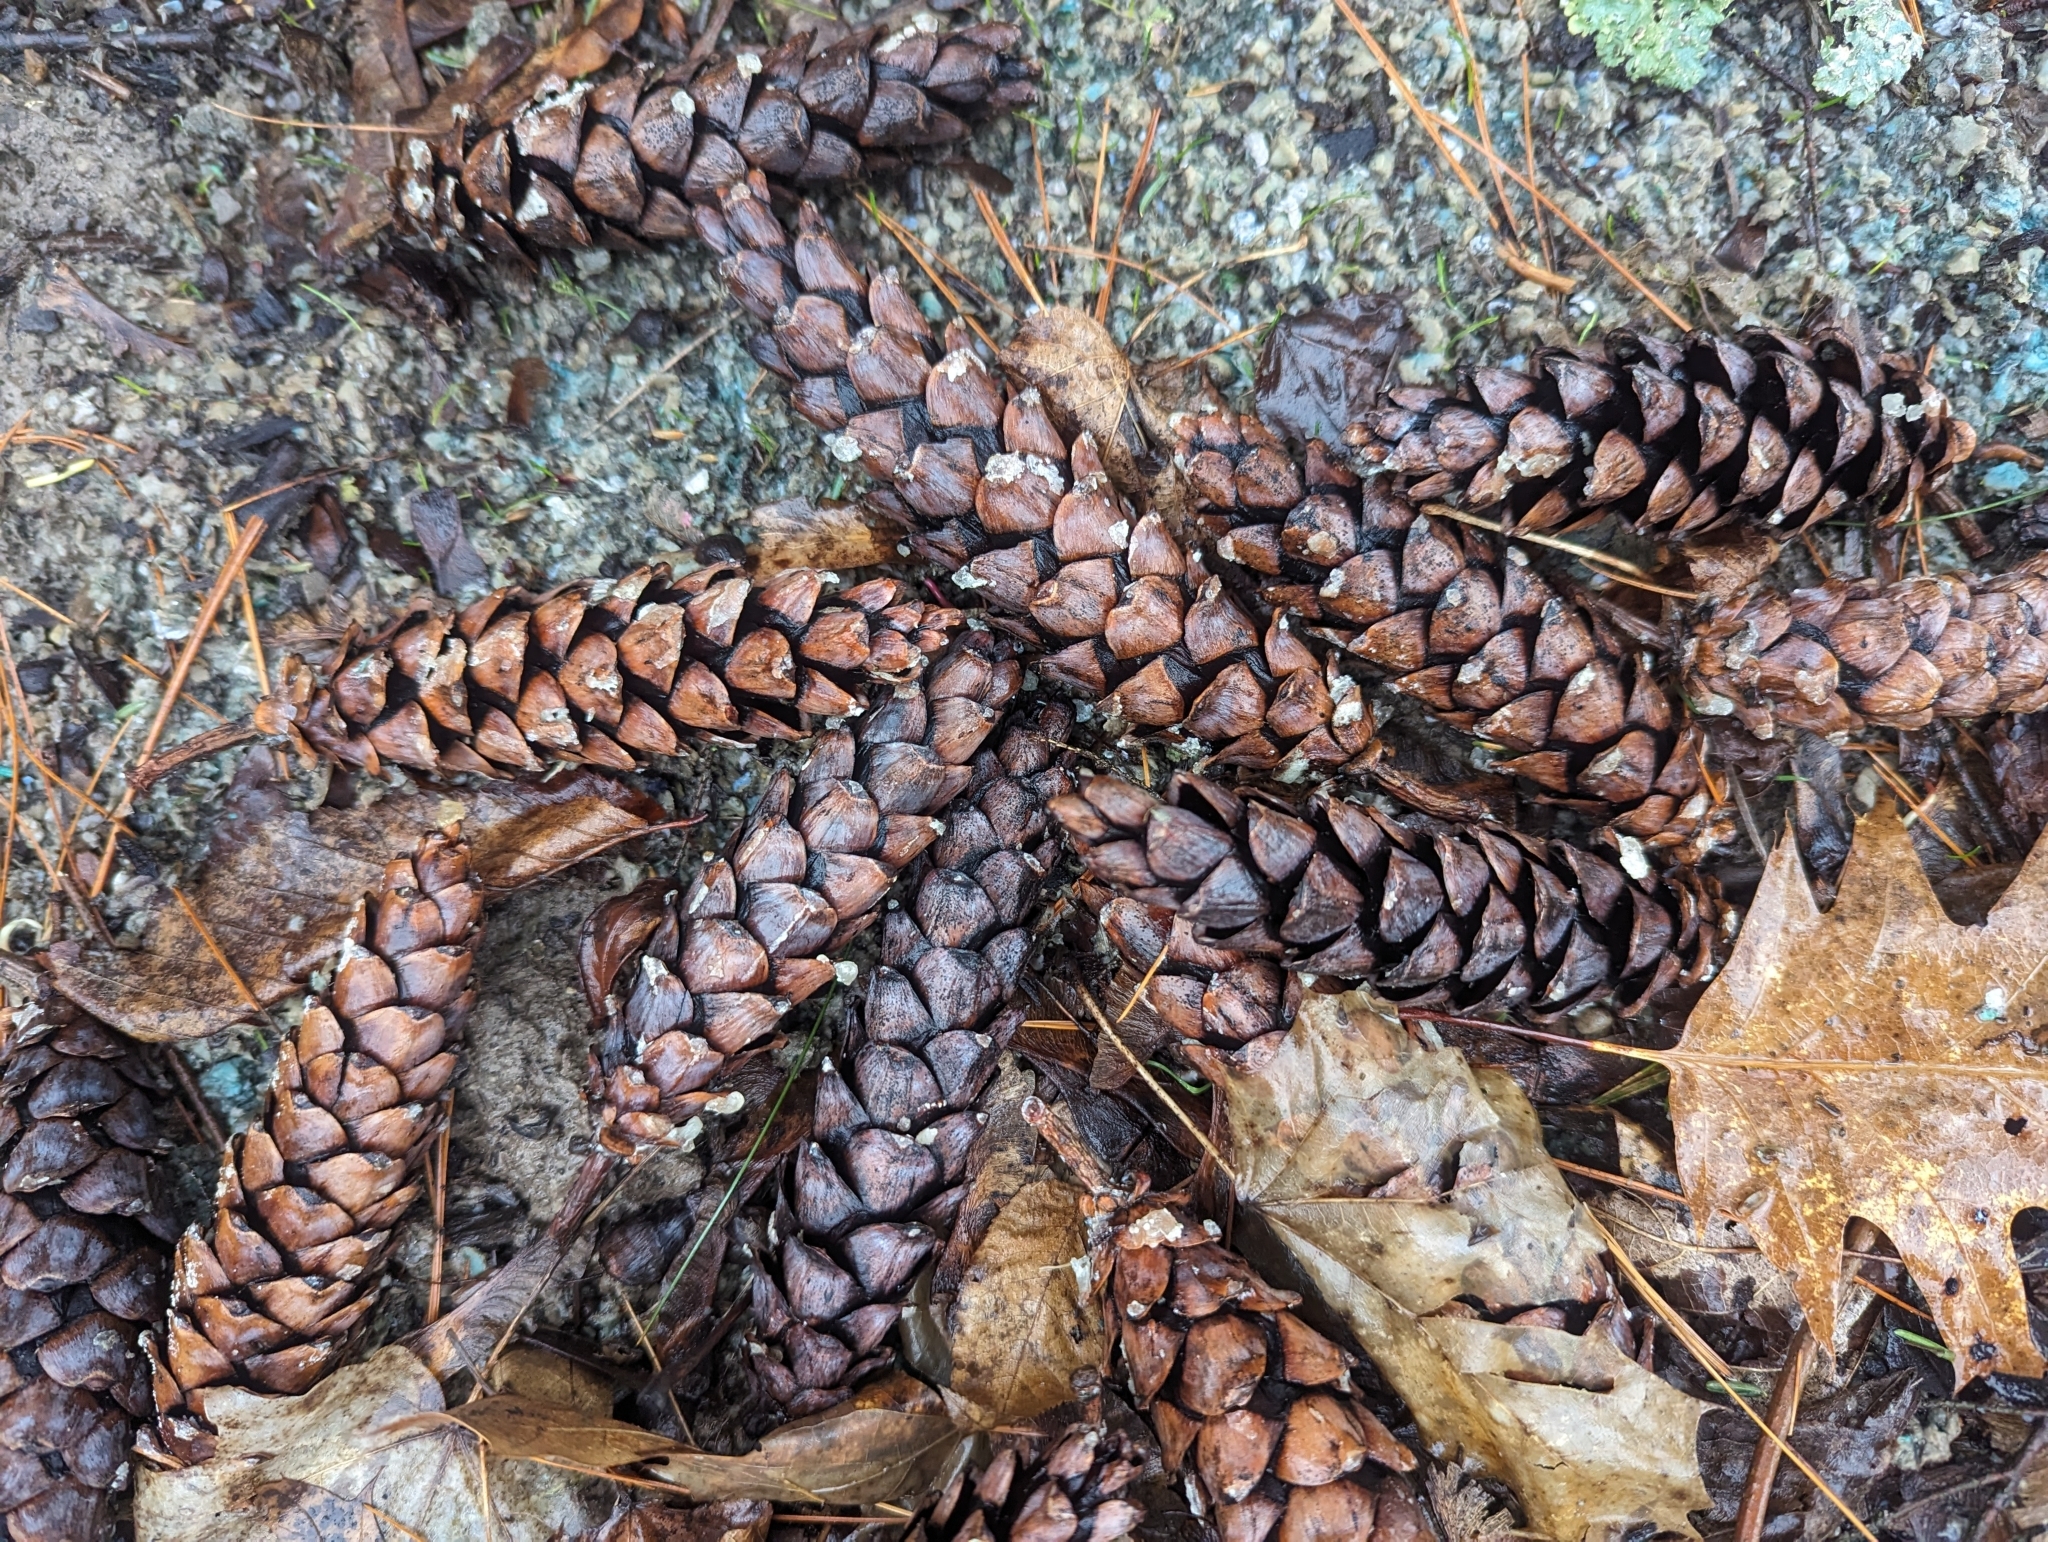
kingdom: Plantae
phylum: Tracheophyta
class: Pinopsida
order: Pinales
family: Pinaceae
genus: Pinus
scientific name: Pinus strobus
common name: Weymouth pine
